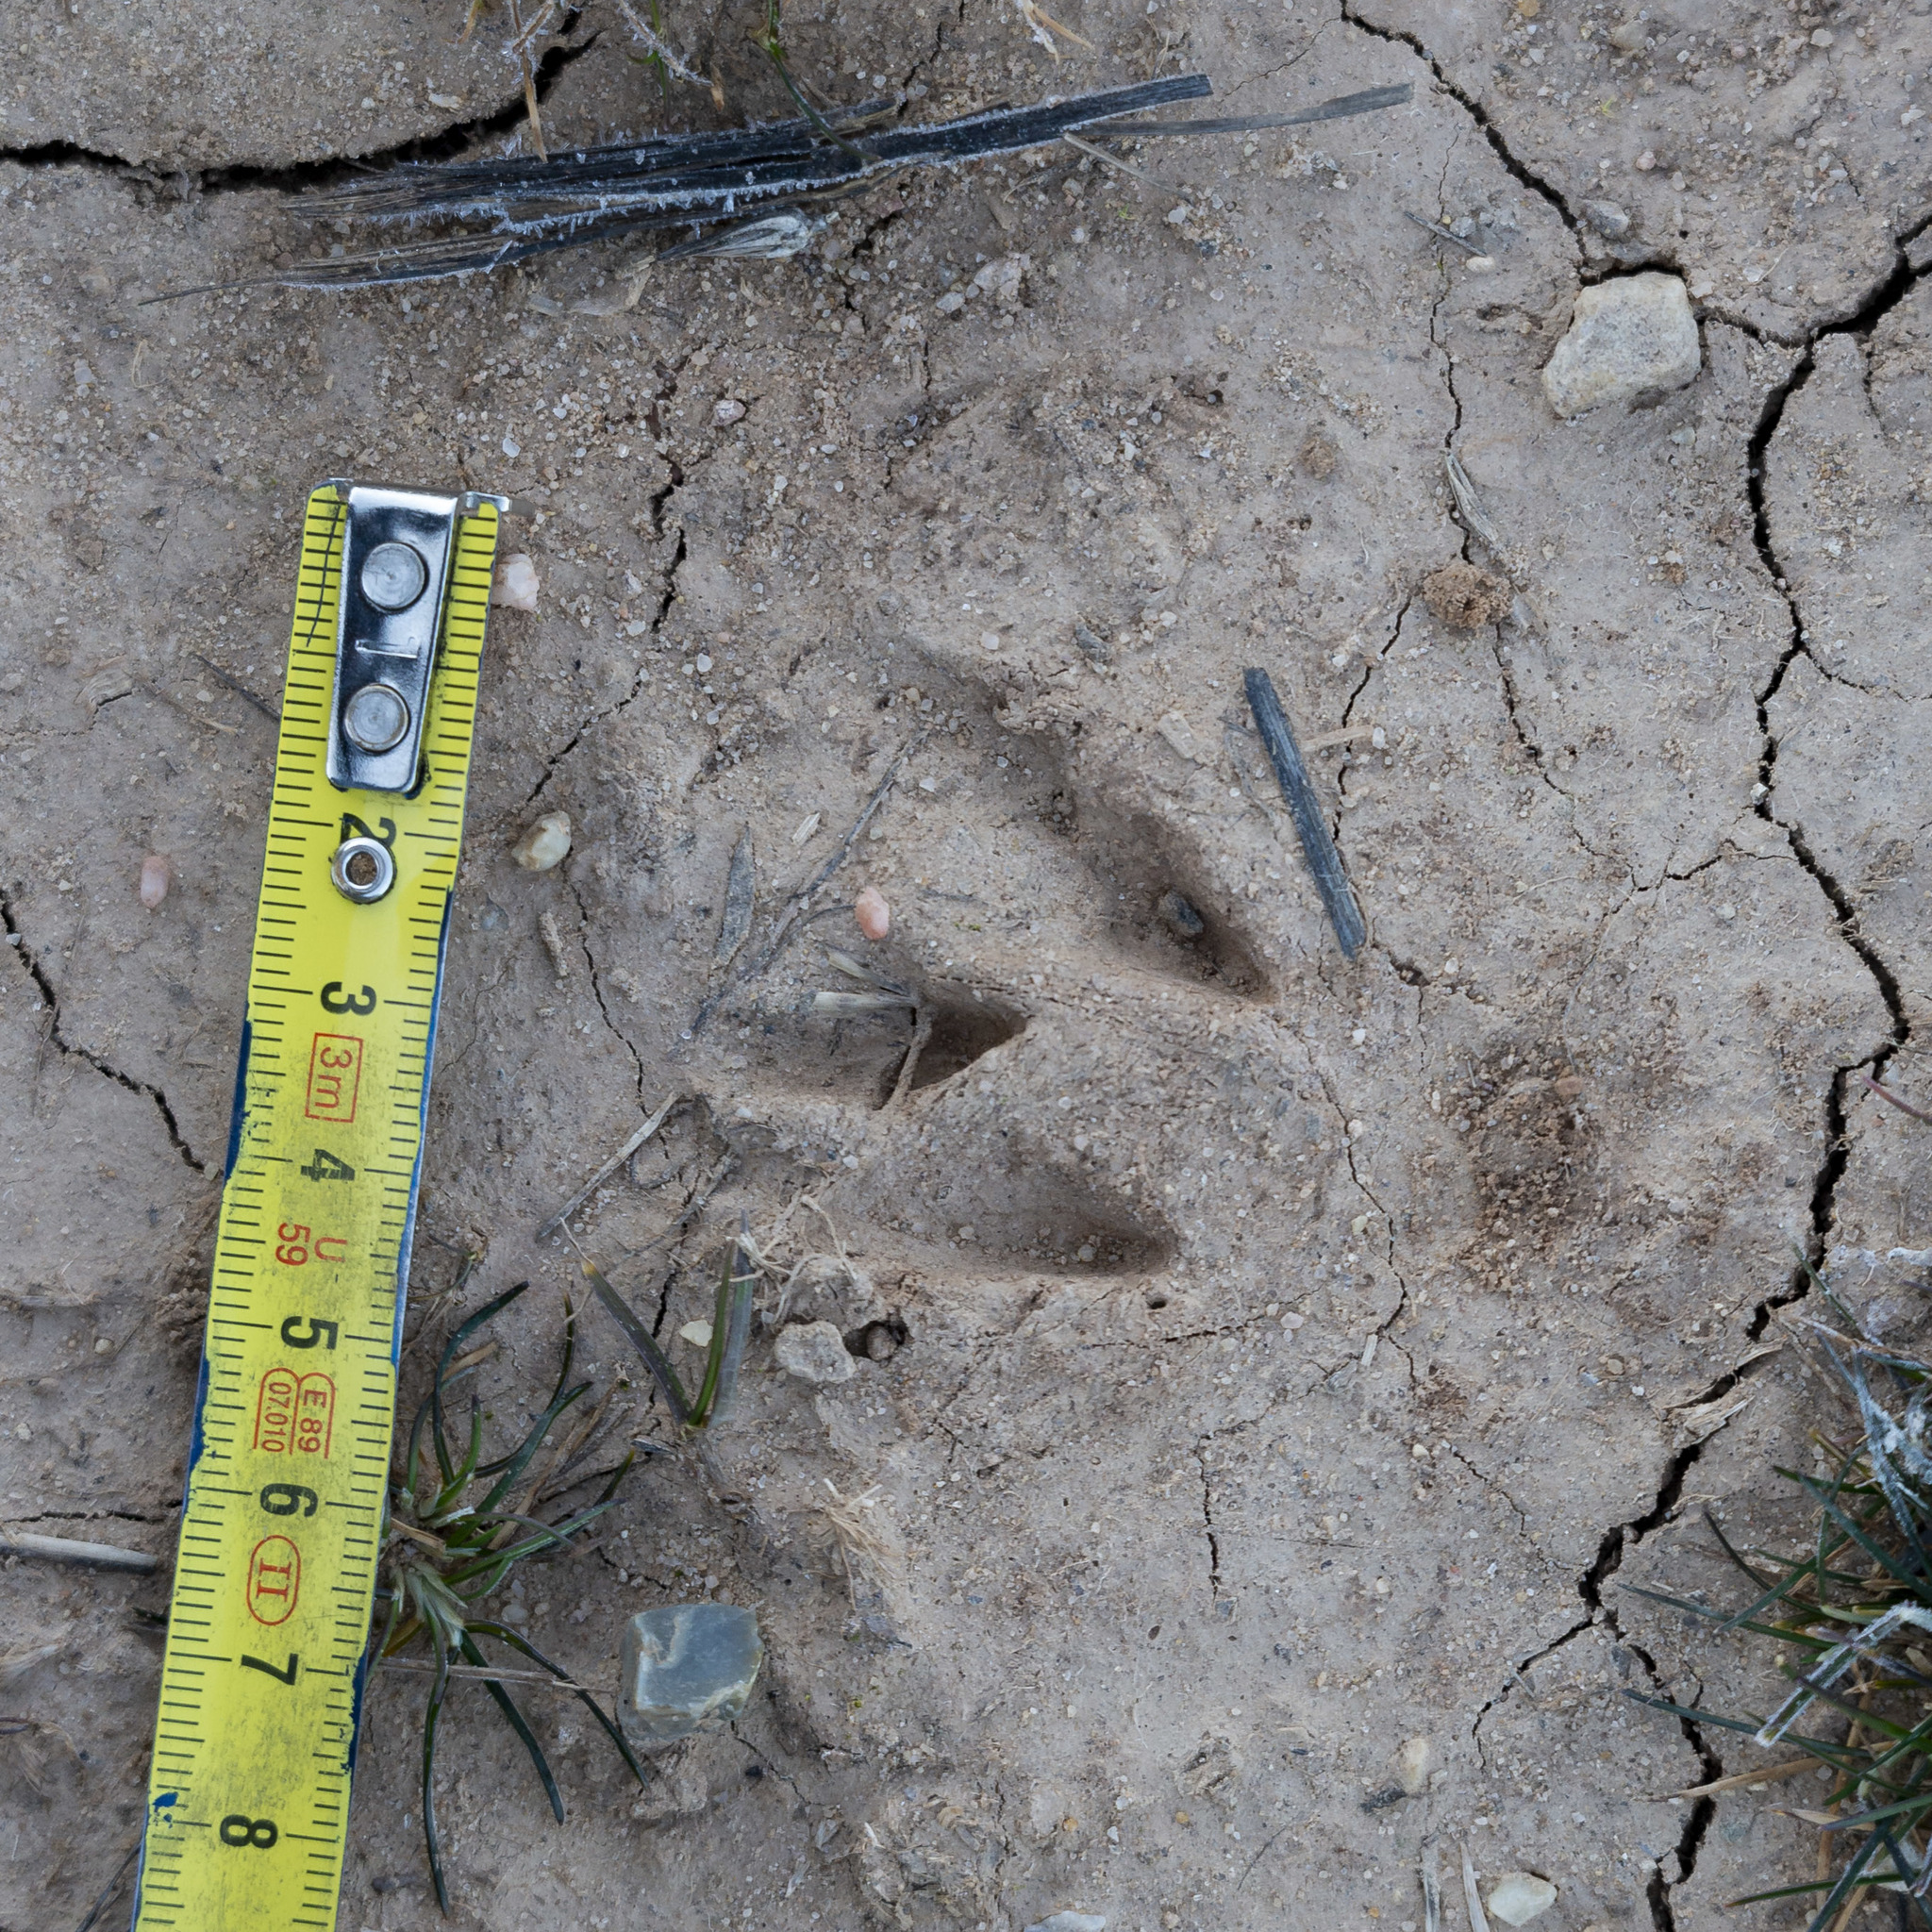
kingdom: Animalia
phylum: Chordata
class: Mammalia
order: Artiodactyla
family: Cervidae
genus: Capreolus
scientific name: Capreolus capreolus
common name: Western roe deer
